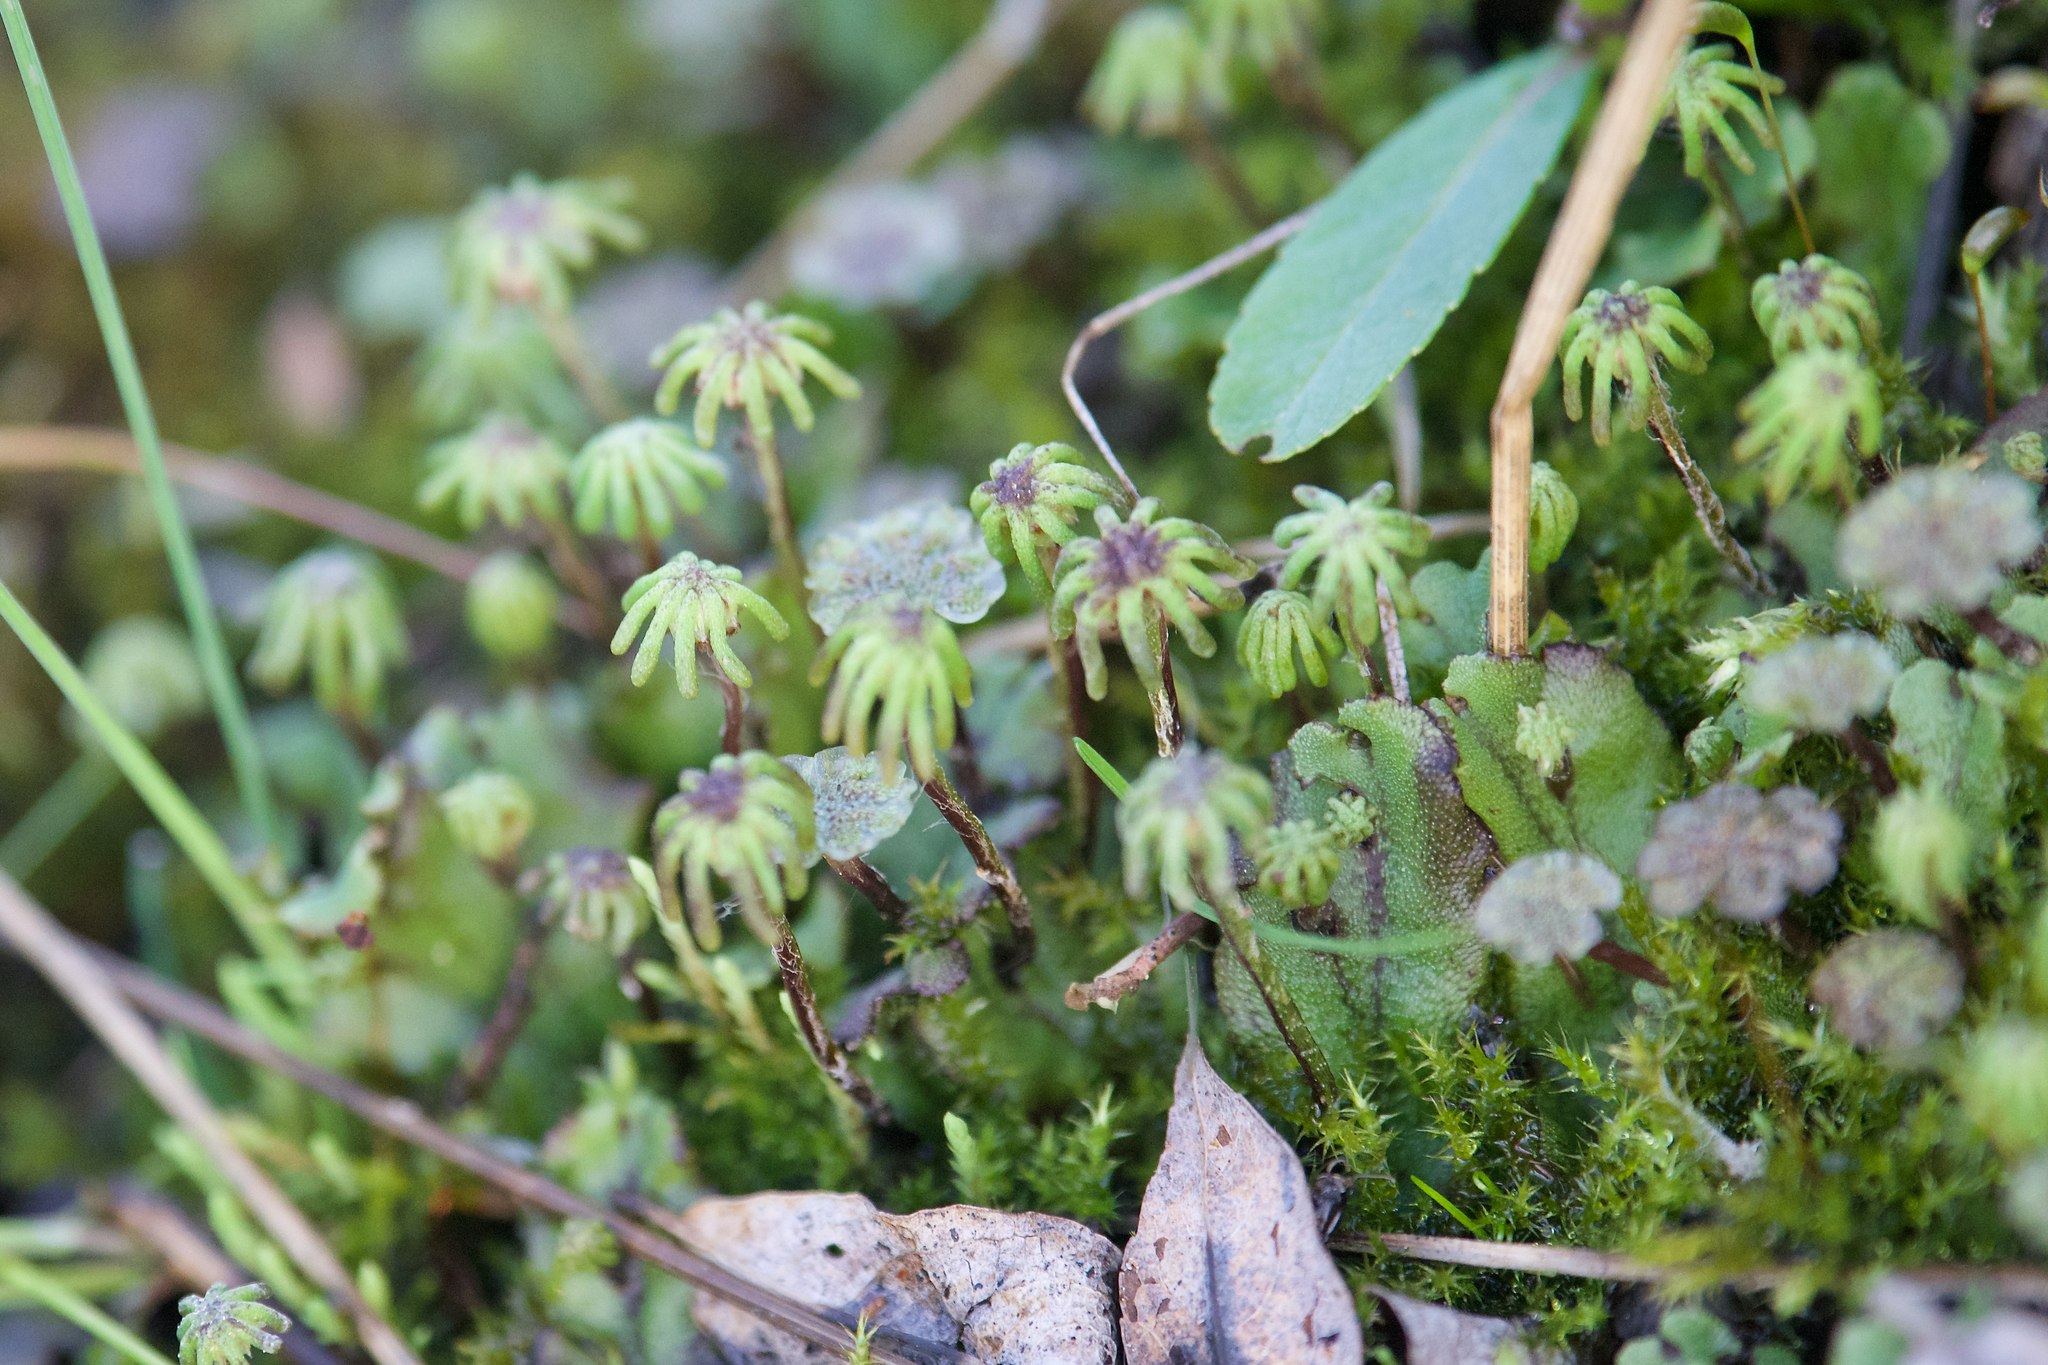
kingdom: Plantae
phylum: Marchantiophyta
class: Marchantiopsida
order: Marchantiales
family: Marchantiaceae
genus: Marchantia
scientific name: Marchantia polymorpha
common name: Common liverwort
